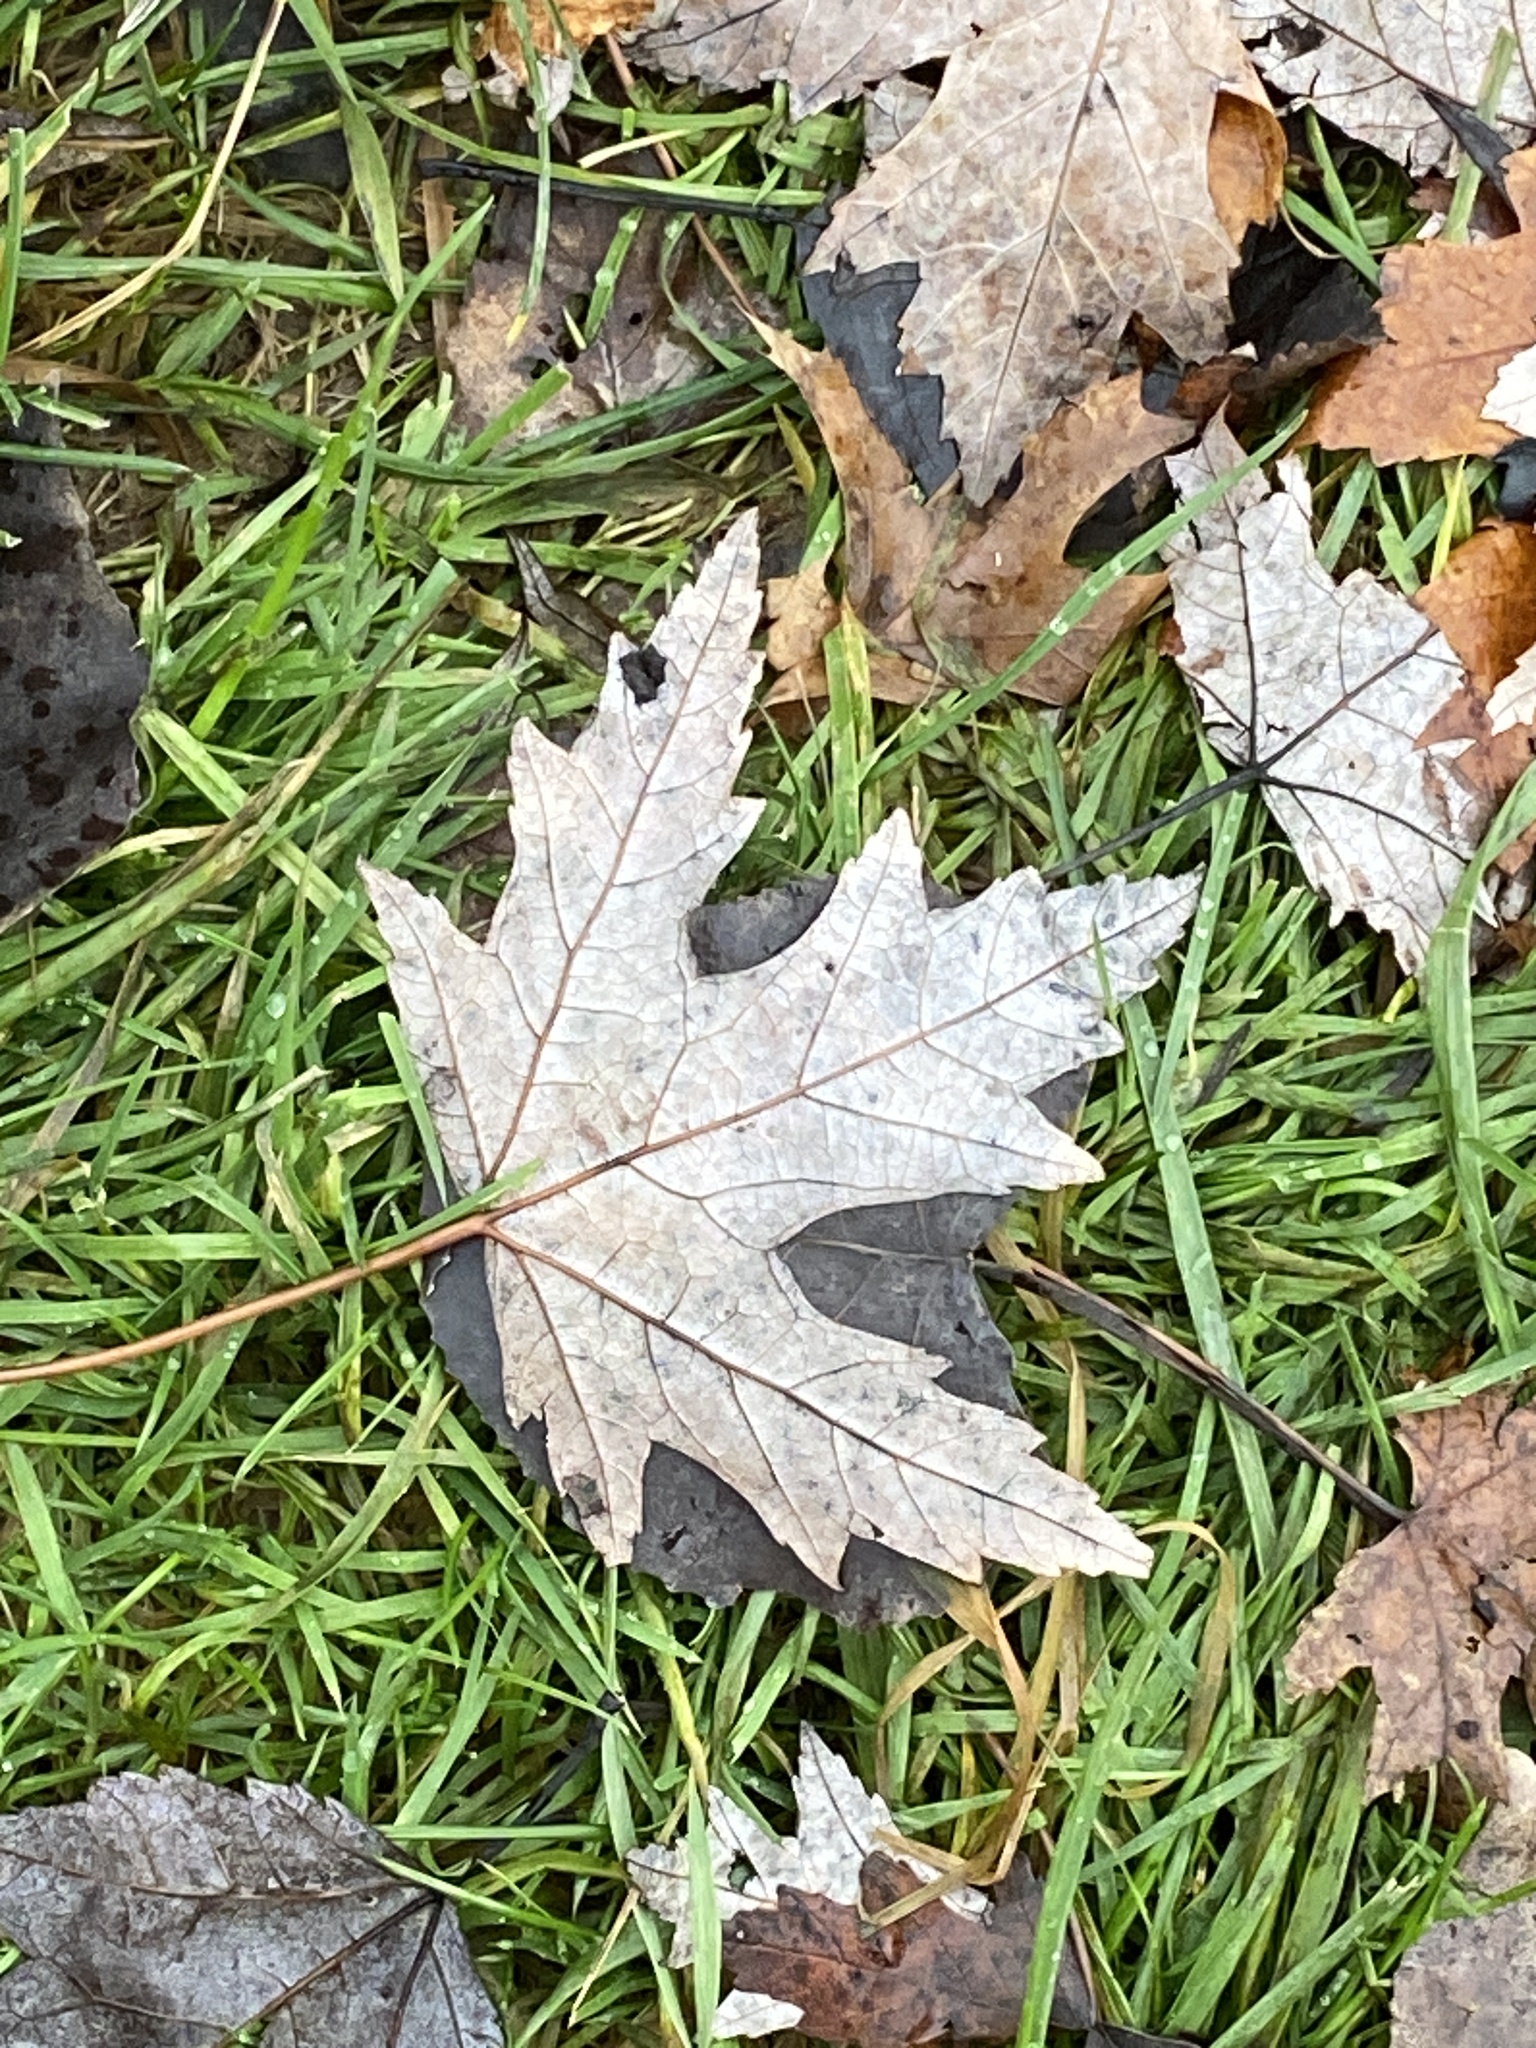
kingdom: Plantae
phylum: Tracheophyta
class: Magnoliopsida
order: Sapindales
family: Sapindaceae
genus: Acer
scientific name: Acer saccharinum
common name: Silver maple
